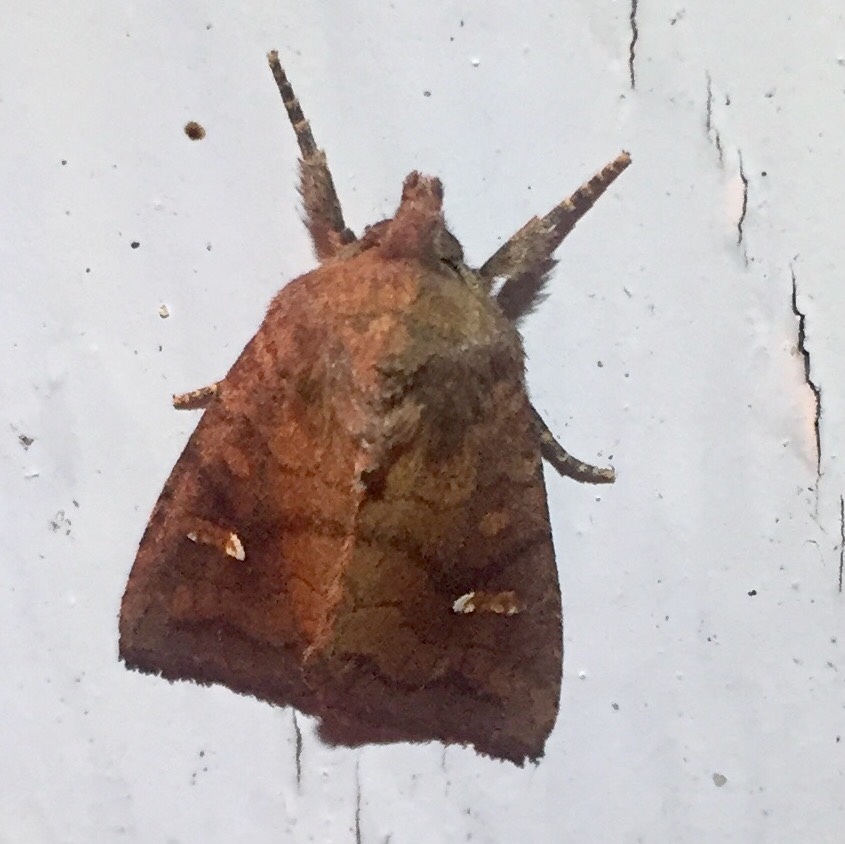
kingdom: Animalia
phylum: Arthropoda
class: Insecta
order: Lepidoptera
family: Noctuidae
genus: Tricholita
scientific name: Tricholita signata
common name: Signate quaker
